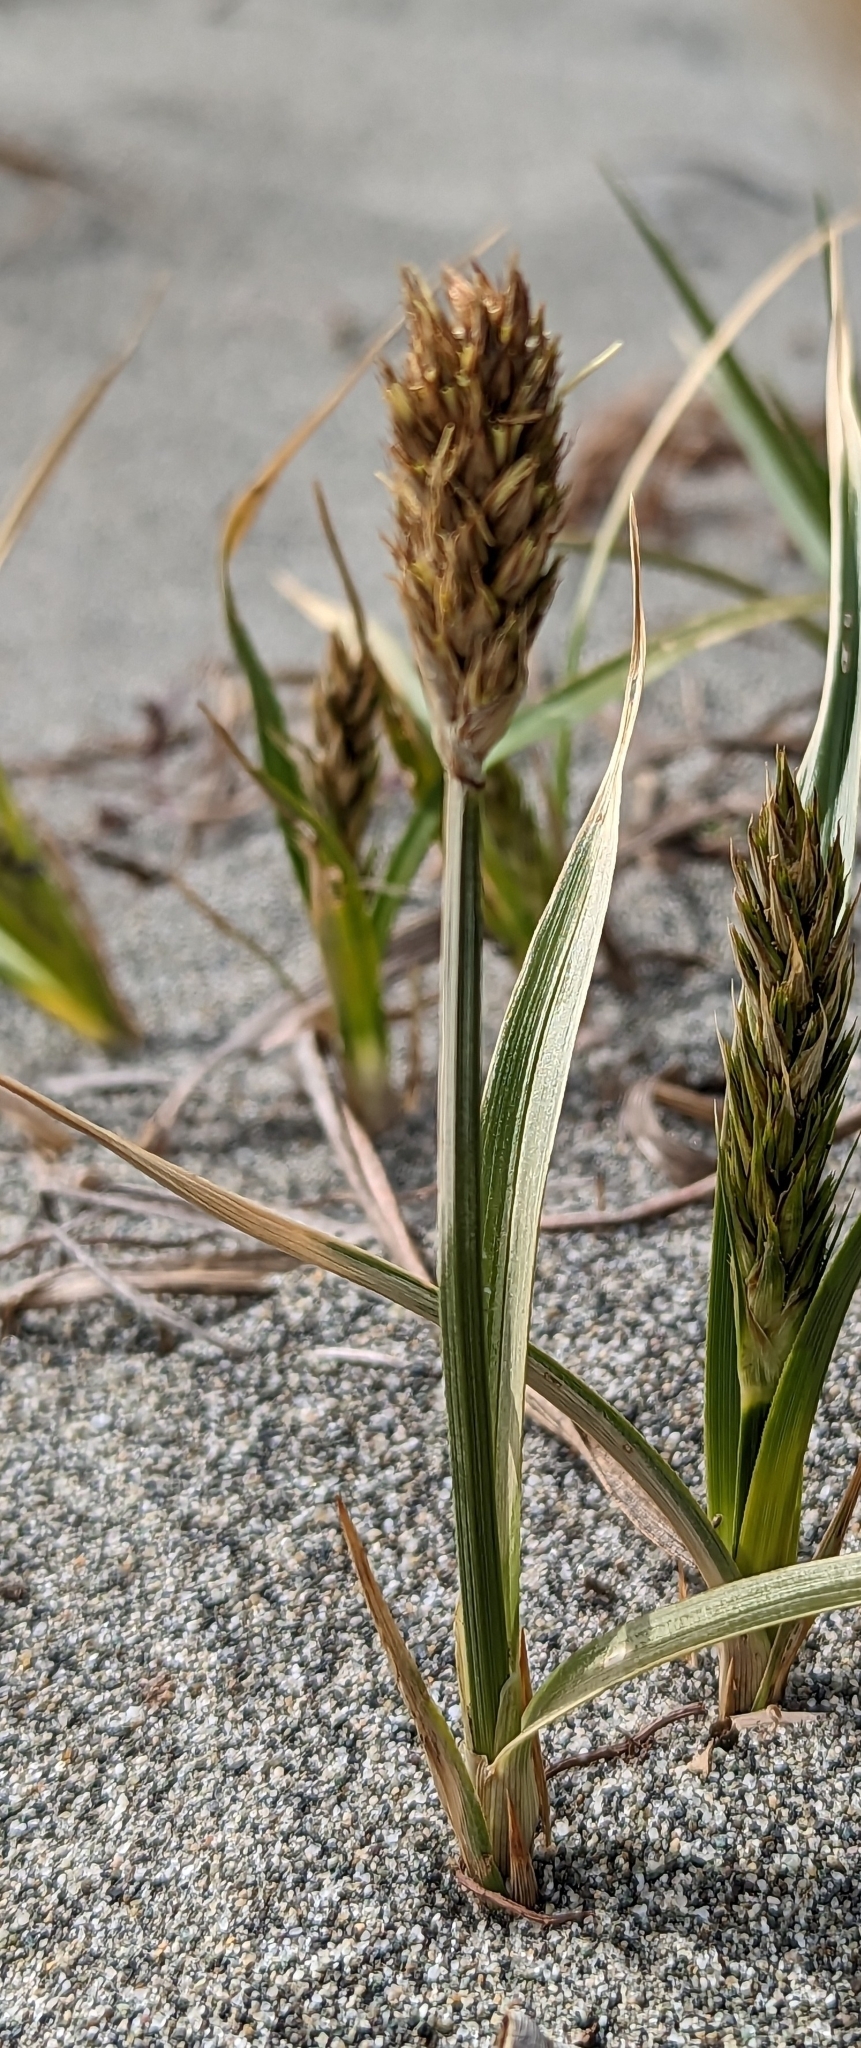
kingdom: Plantae
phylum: Tracheophyta
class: Liliopsida
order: Poales
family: Cyperaceae
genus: Carex
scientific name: Carex macrocephala
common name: Large-head sedge
